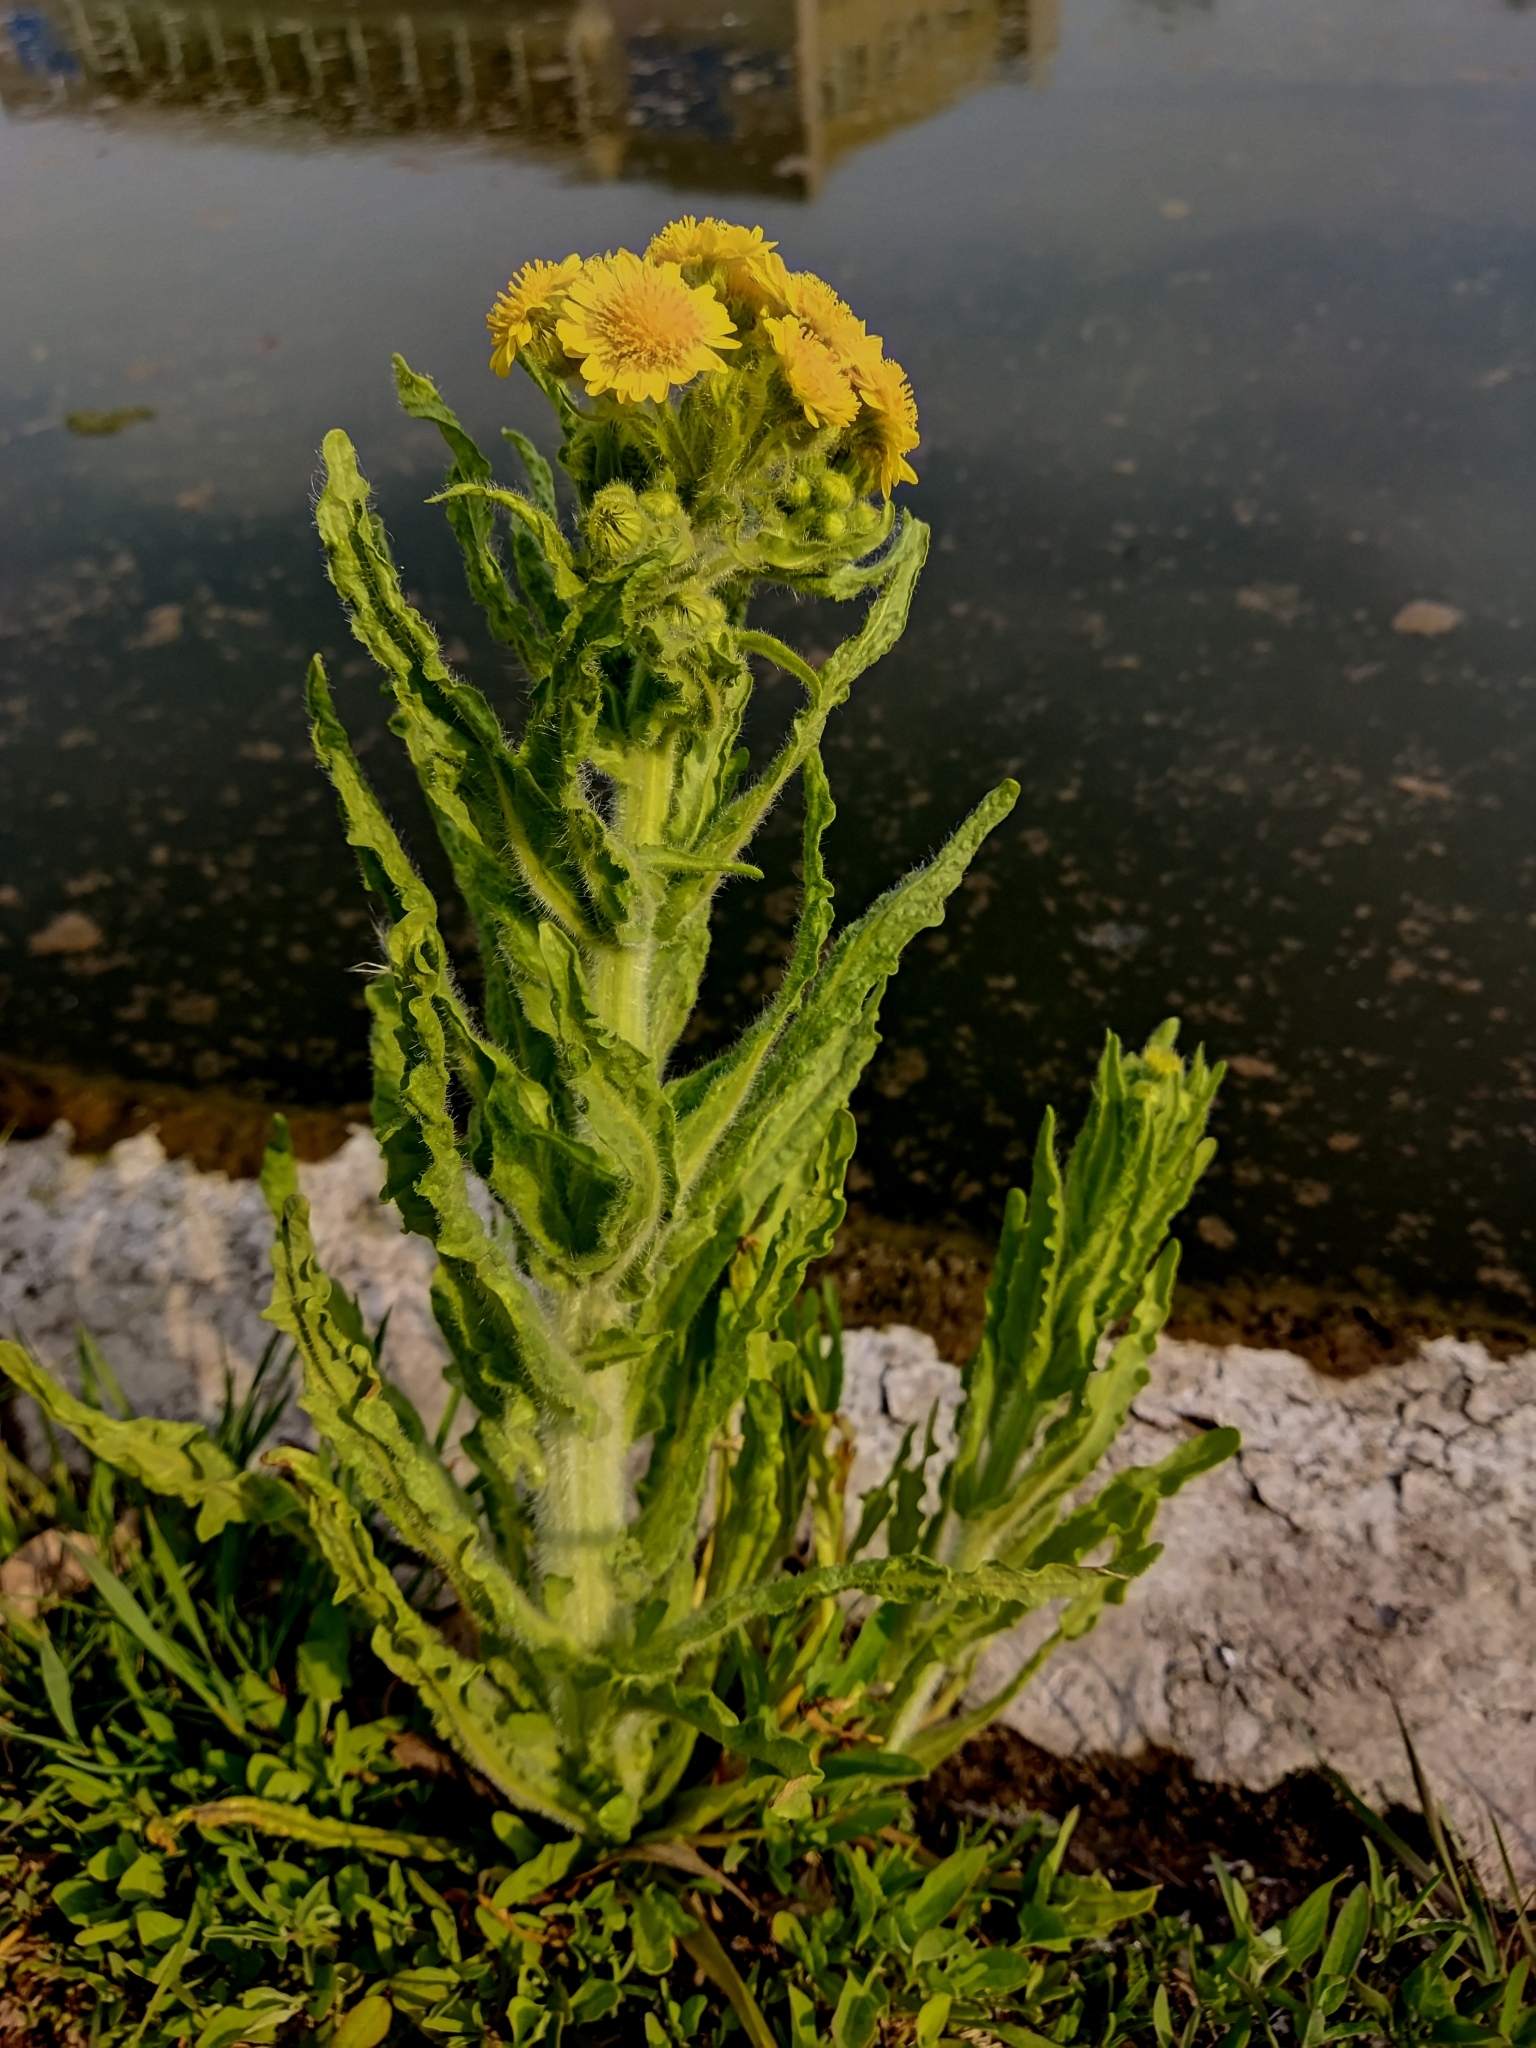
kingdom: Plantae
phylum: Tracheophyta
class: Magnoliopsida
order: Asterales
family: Asteraceae
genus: Tephroseris
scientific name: Tephroseris palustris
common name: Marsh fleawort
